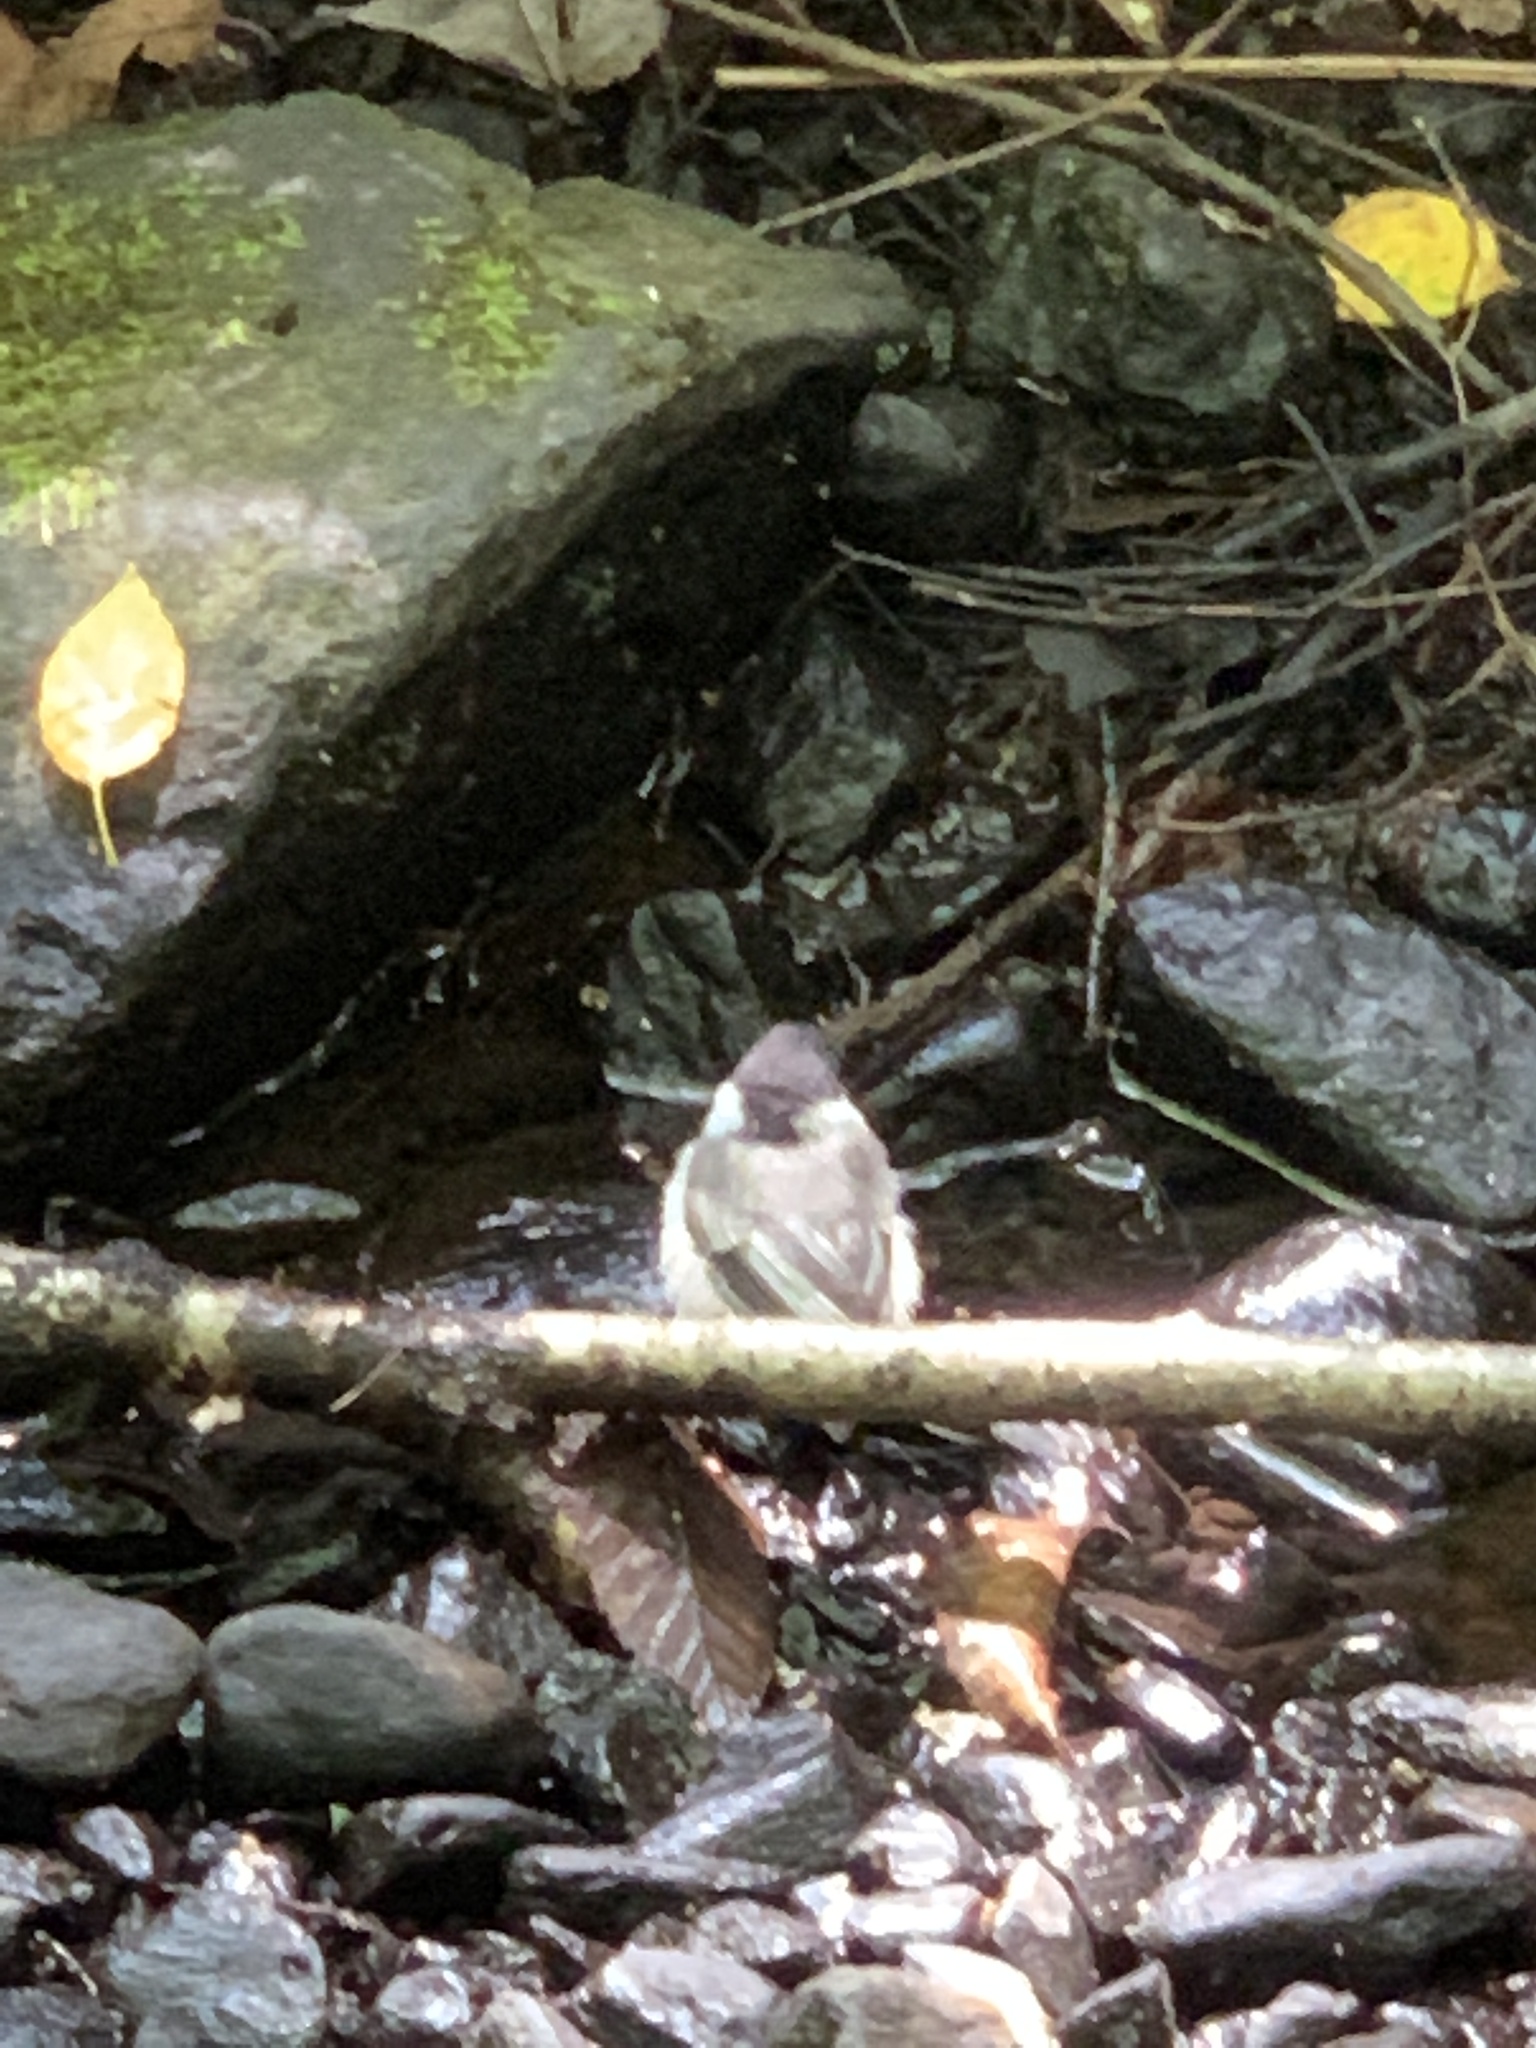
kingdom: Animalia
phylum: Chordata
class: Aves
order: Passeriformes
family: Paridae
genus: Poecile
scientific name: Poecile atricapillus
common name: Black-capped chickadee
